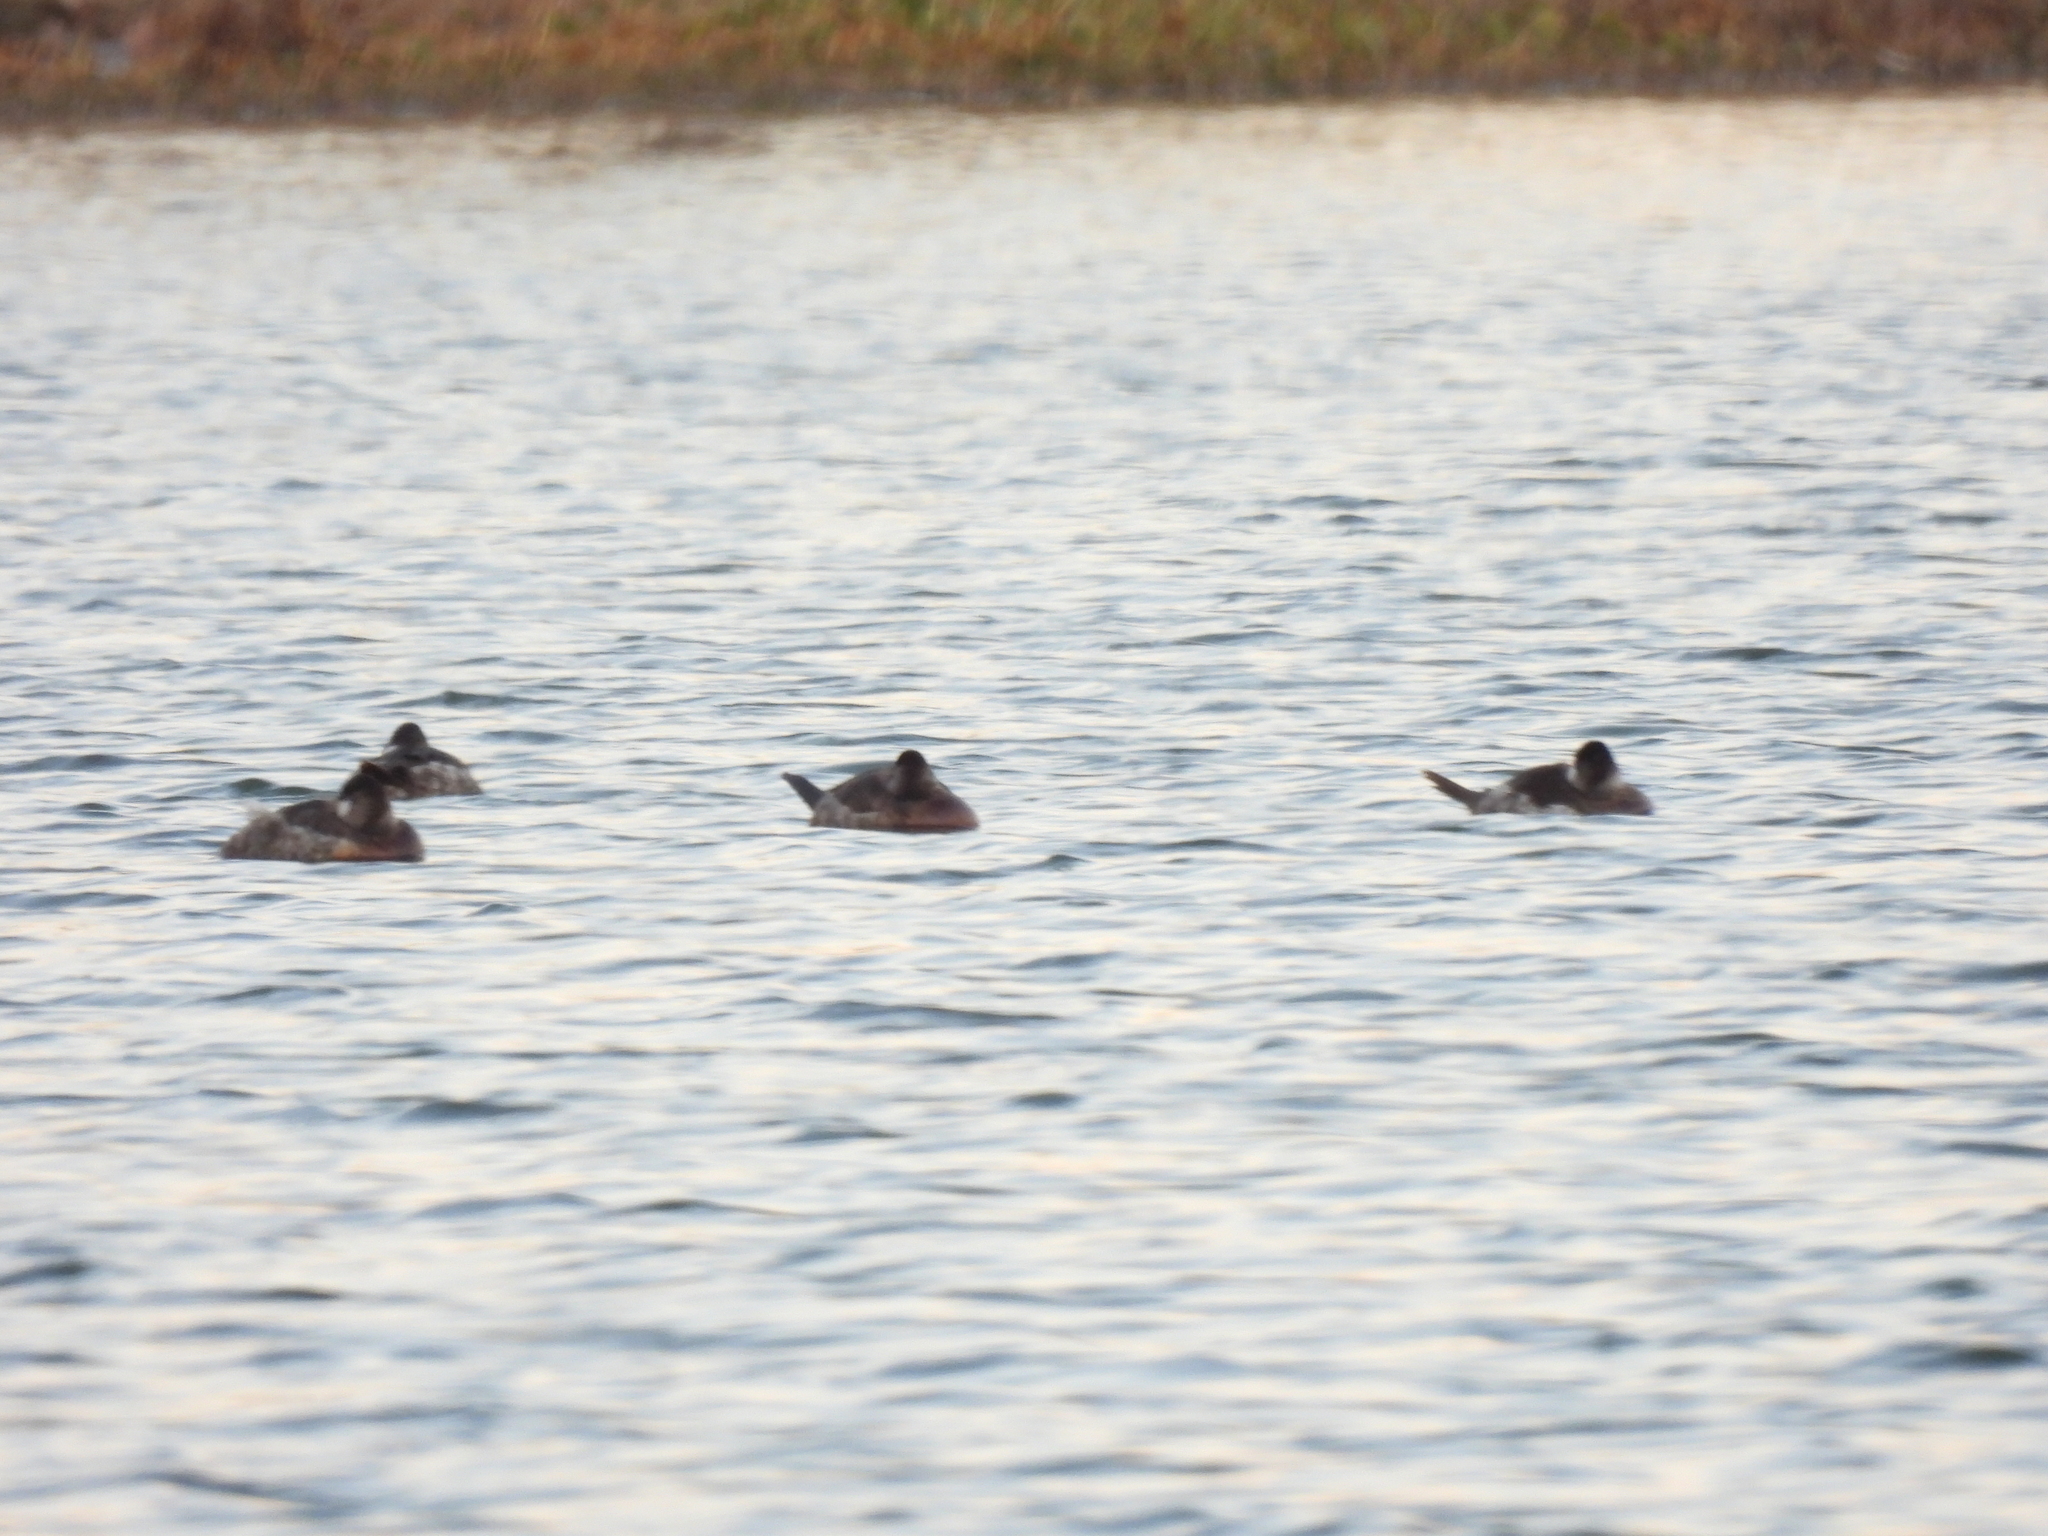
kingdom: Animalia
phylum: Chordata
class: Aves
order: Anseriformes
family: Anatidae
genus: Oxyura
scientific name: Oxyura jamaicensis
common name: Ruddy duck
